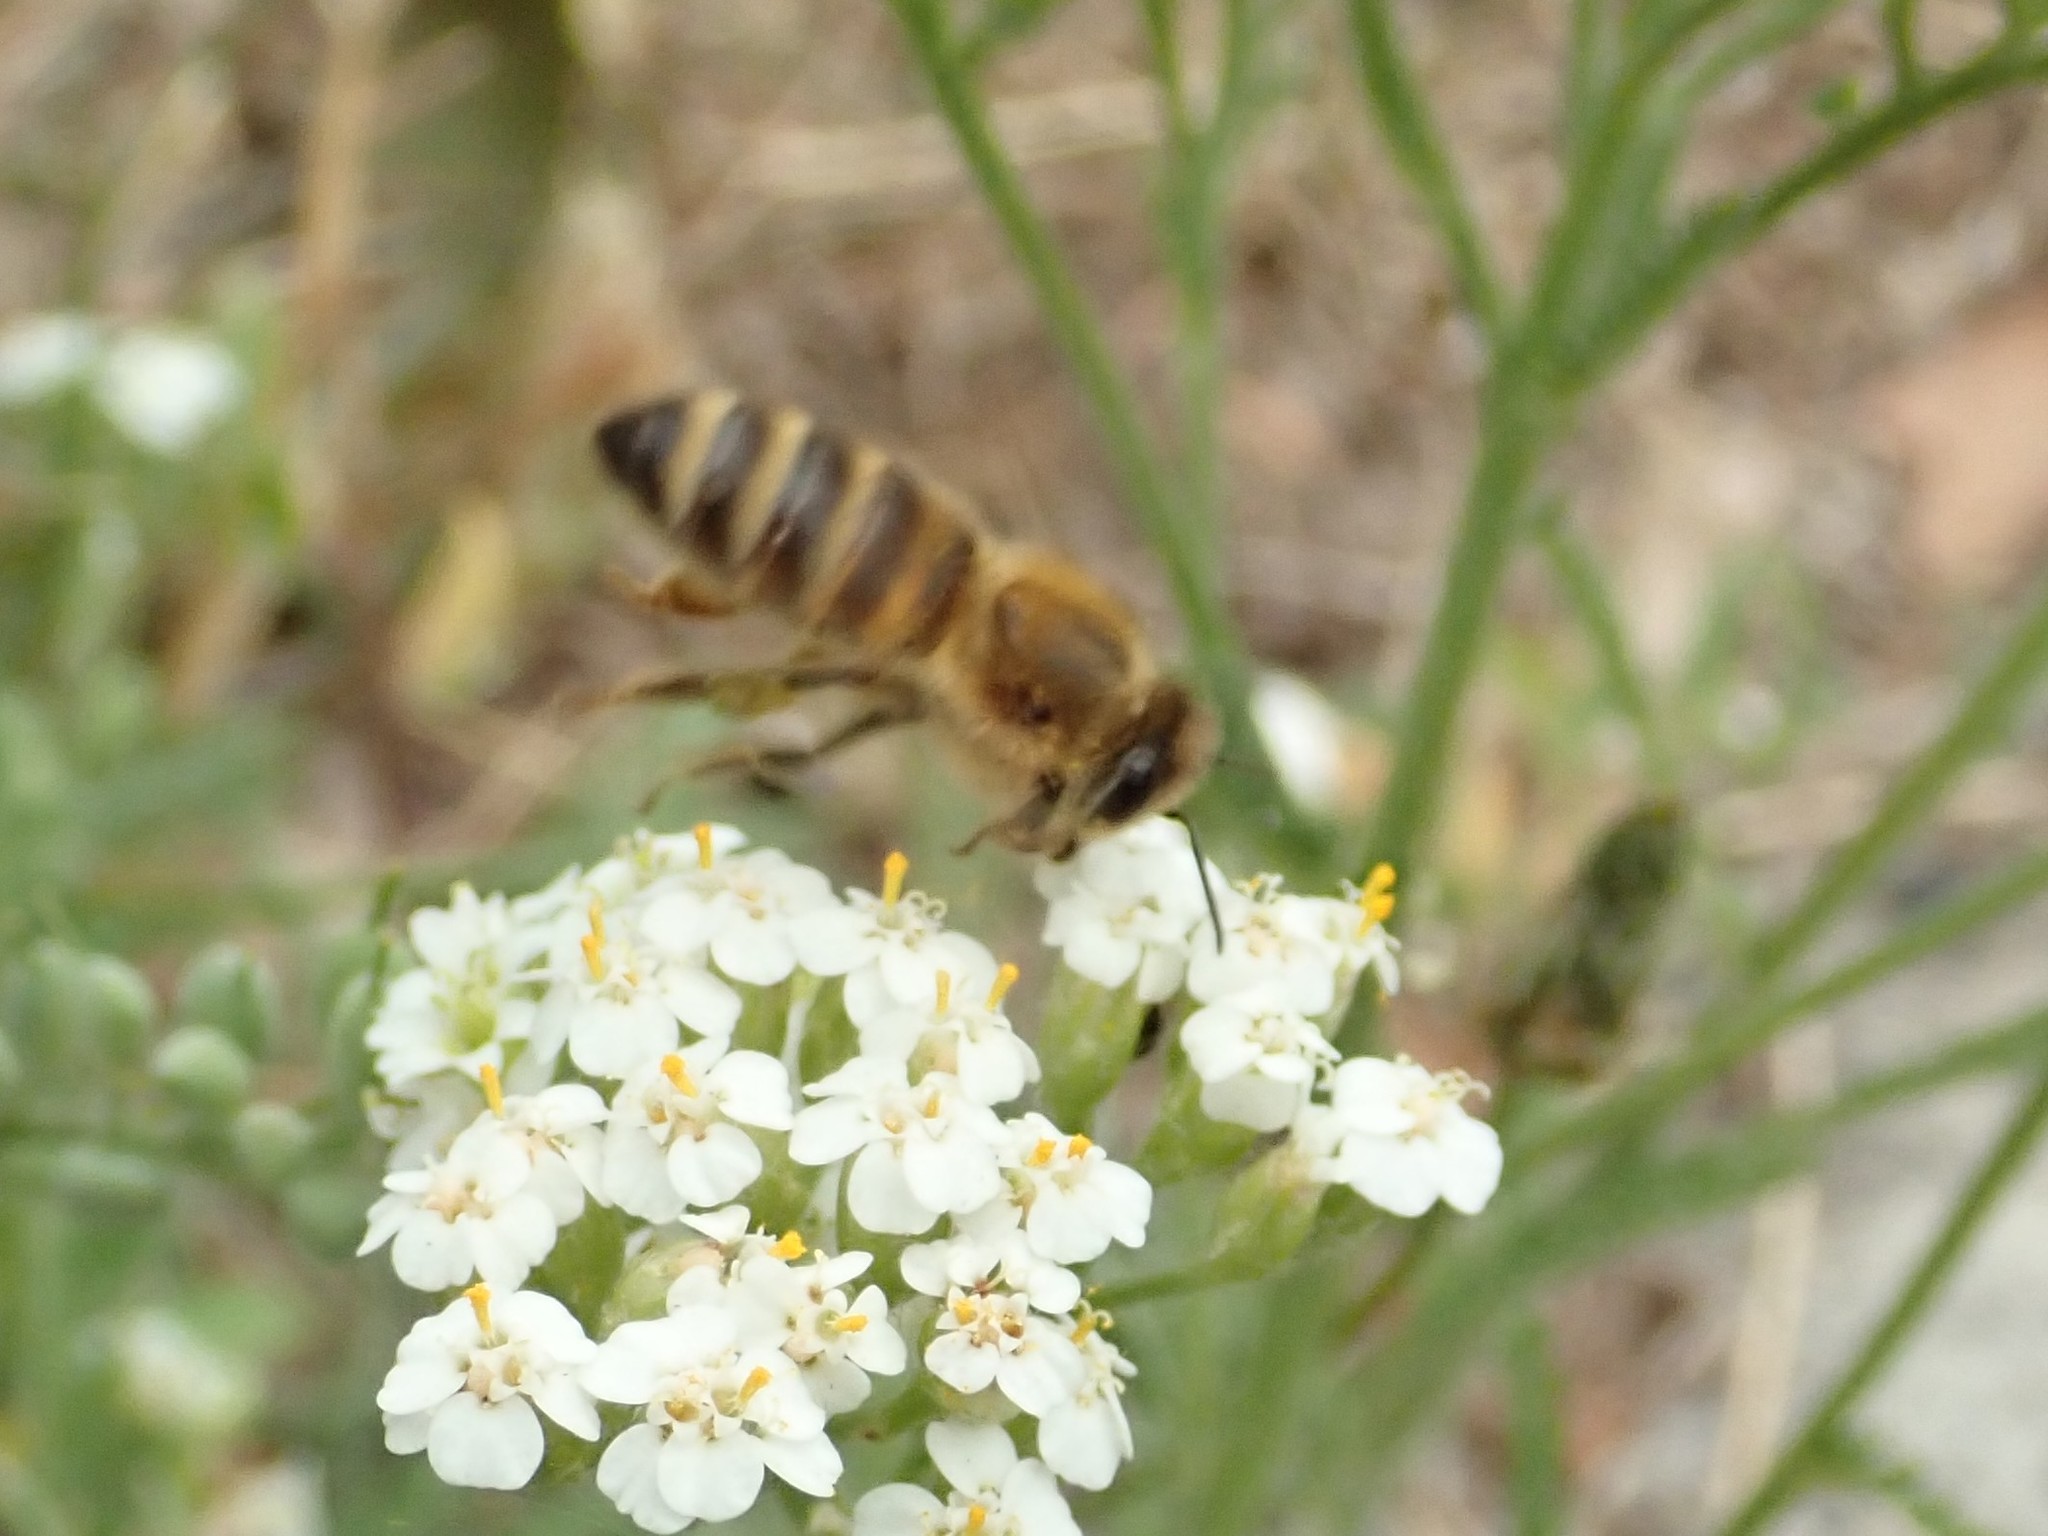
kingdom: Animalia
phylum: Arthropoda
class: Insecta
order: Hymenoptera
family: Apidae
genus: Apis
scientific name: Apis mellifera
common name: Honey bee
